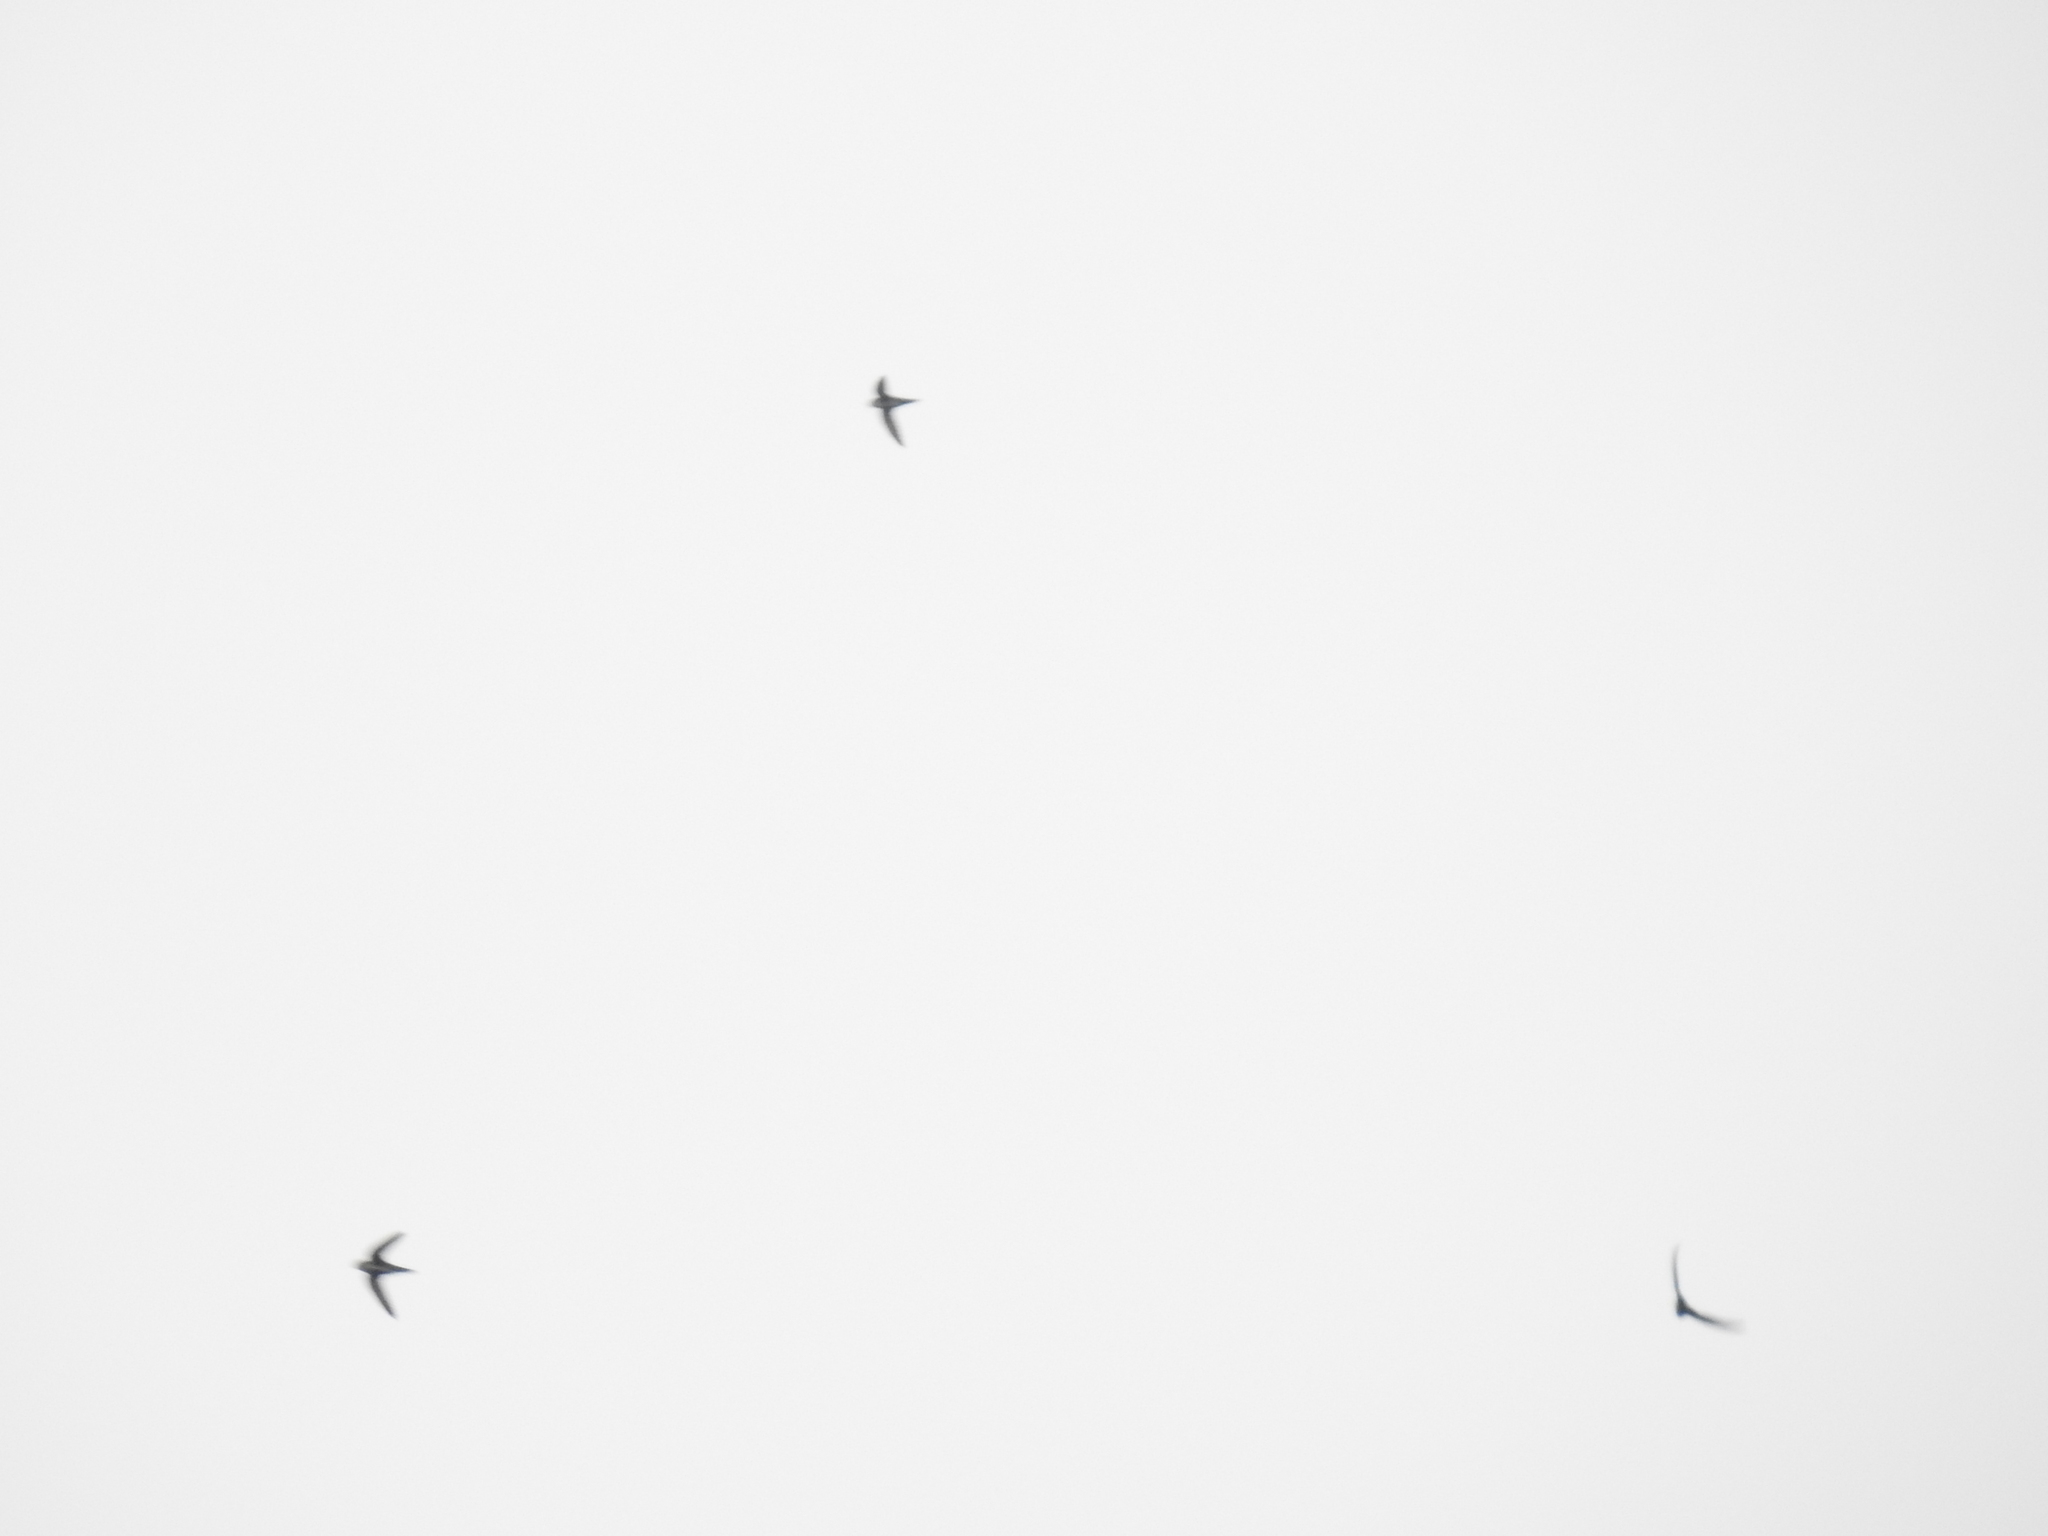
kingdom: Animalia
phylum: Chordata
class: Aves
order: Apodiformes
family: Apodidae
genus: Aeronautes
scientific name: Aeronautes saxatalis
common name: White-throated swift
